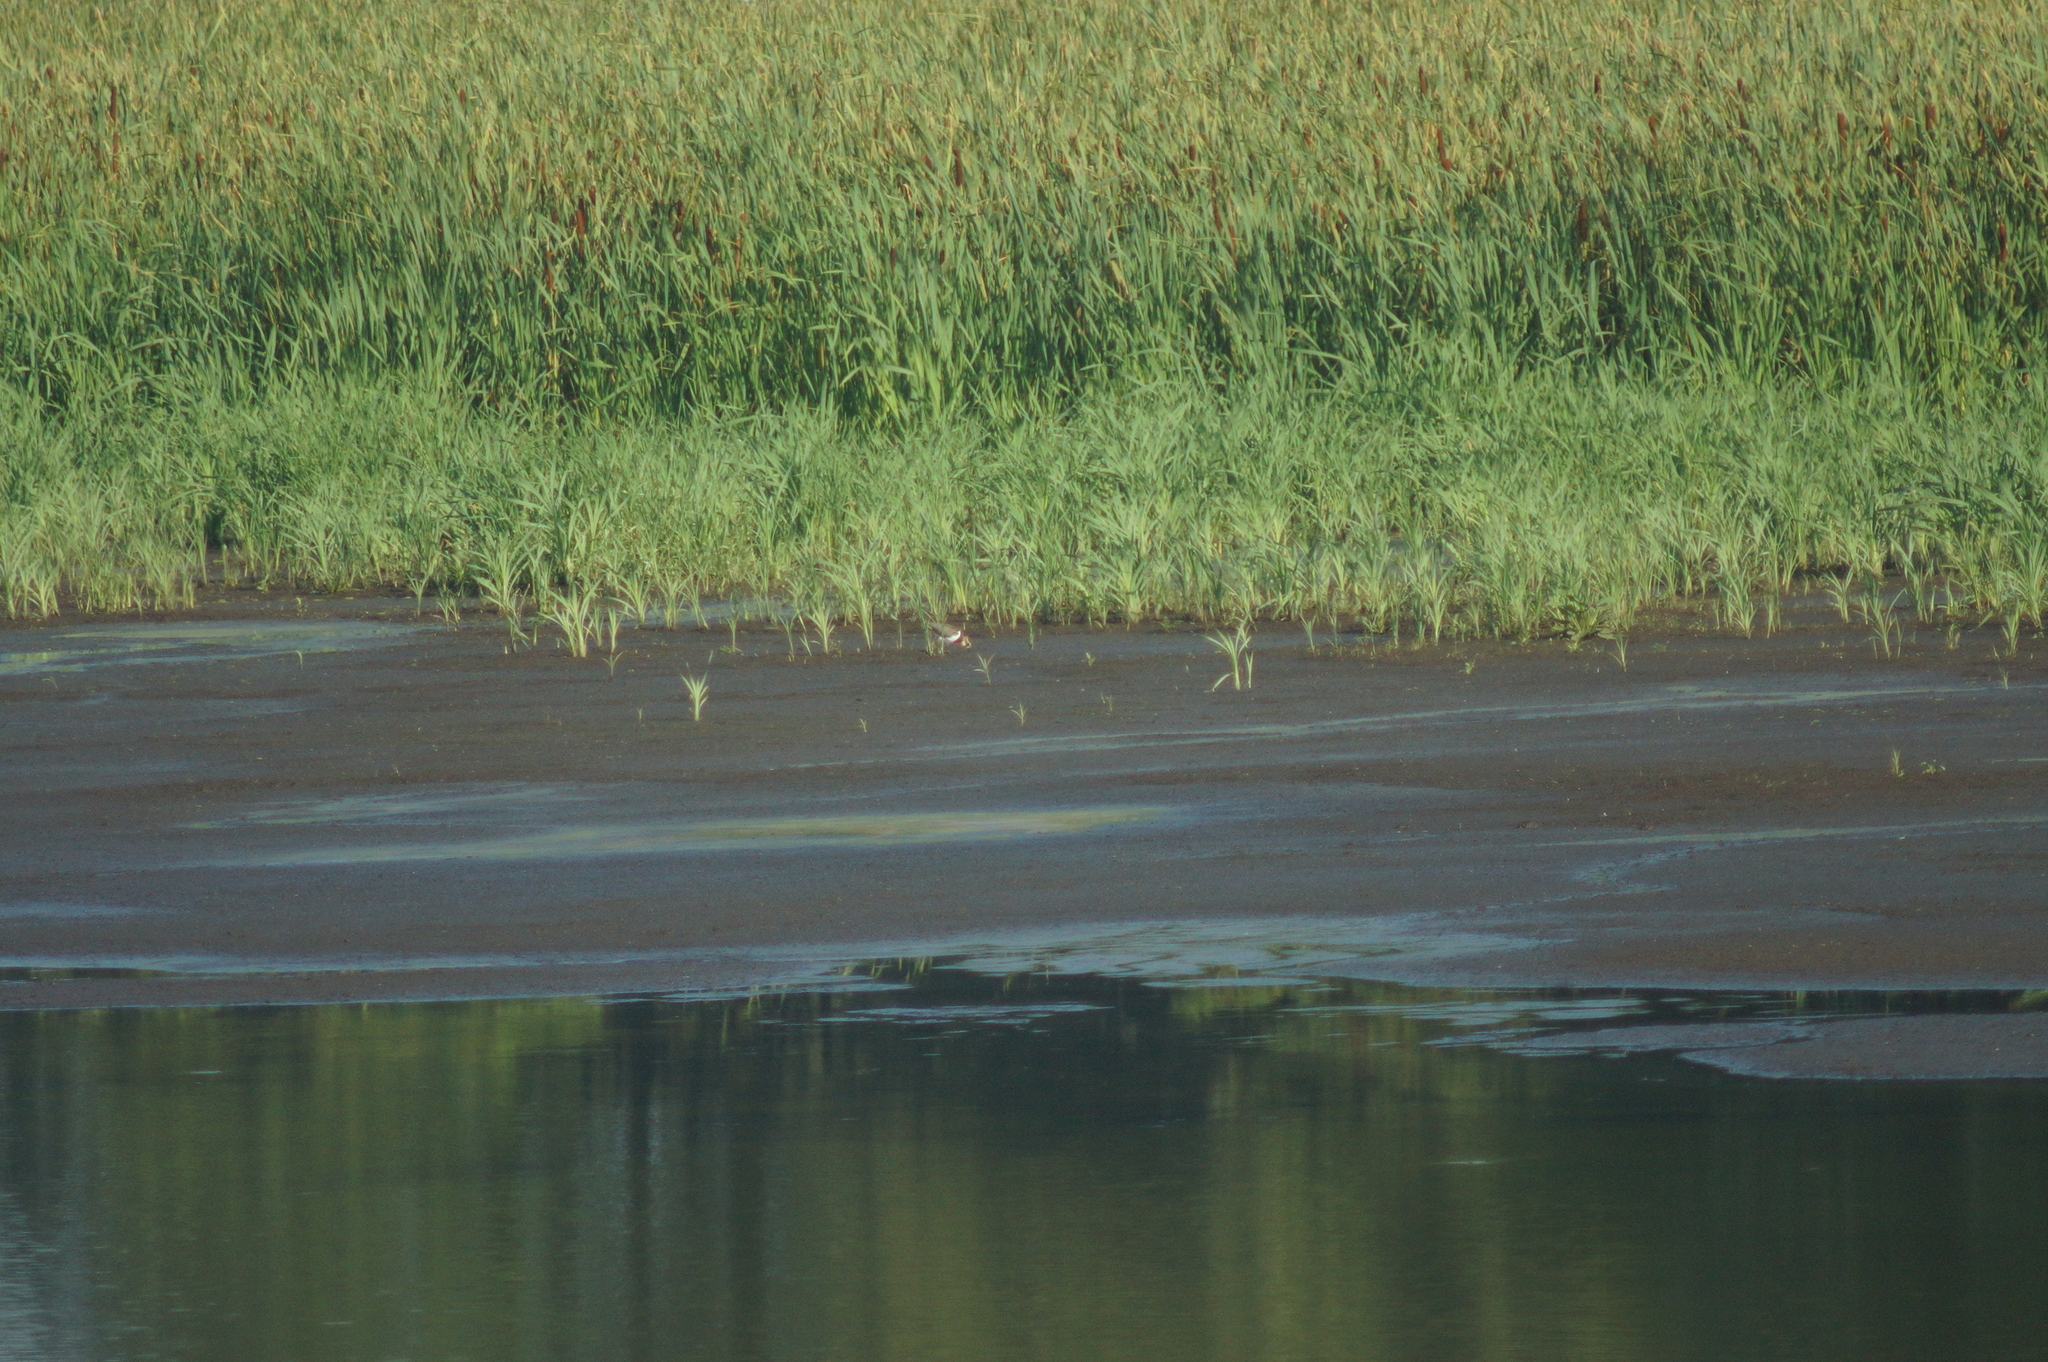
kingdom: Animalia
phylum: Chordata
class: Aves
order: Charadriiformes
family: Charadriidae
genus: Vanellus
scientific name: Vanellus vanellus
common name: Northern lapwing
